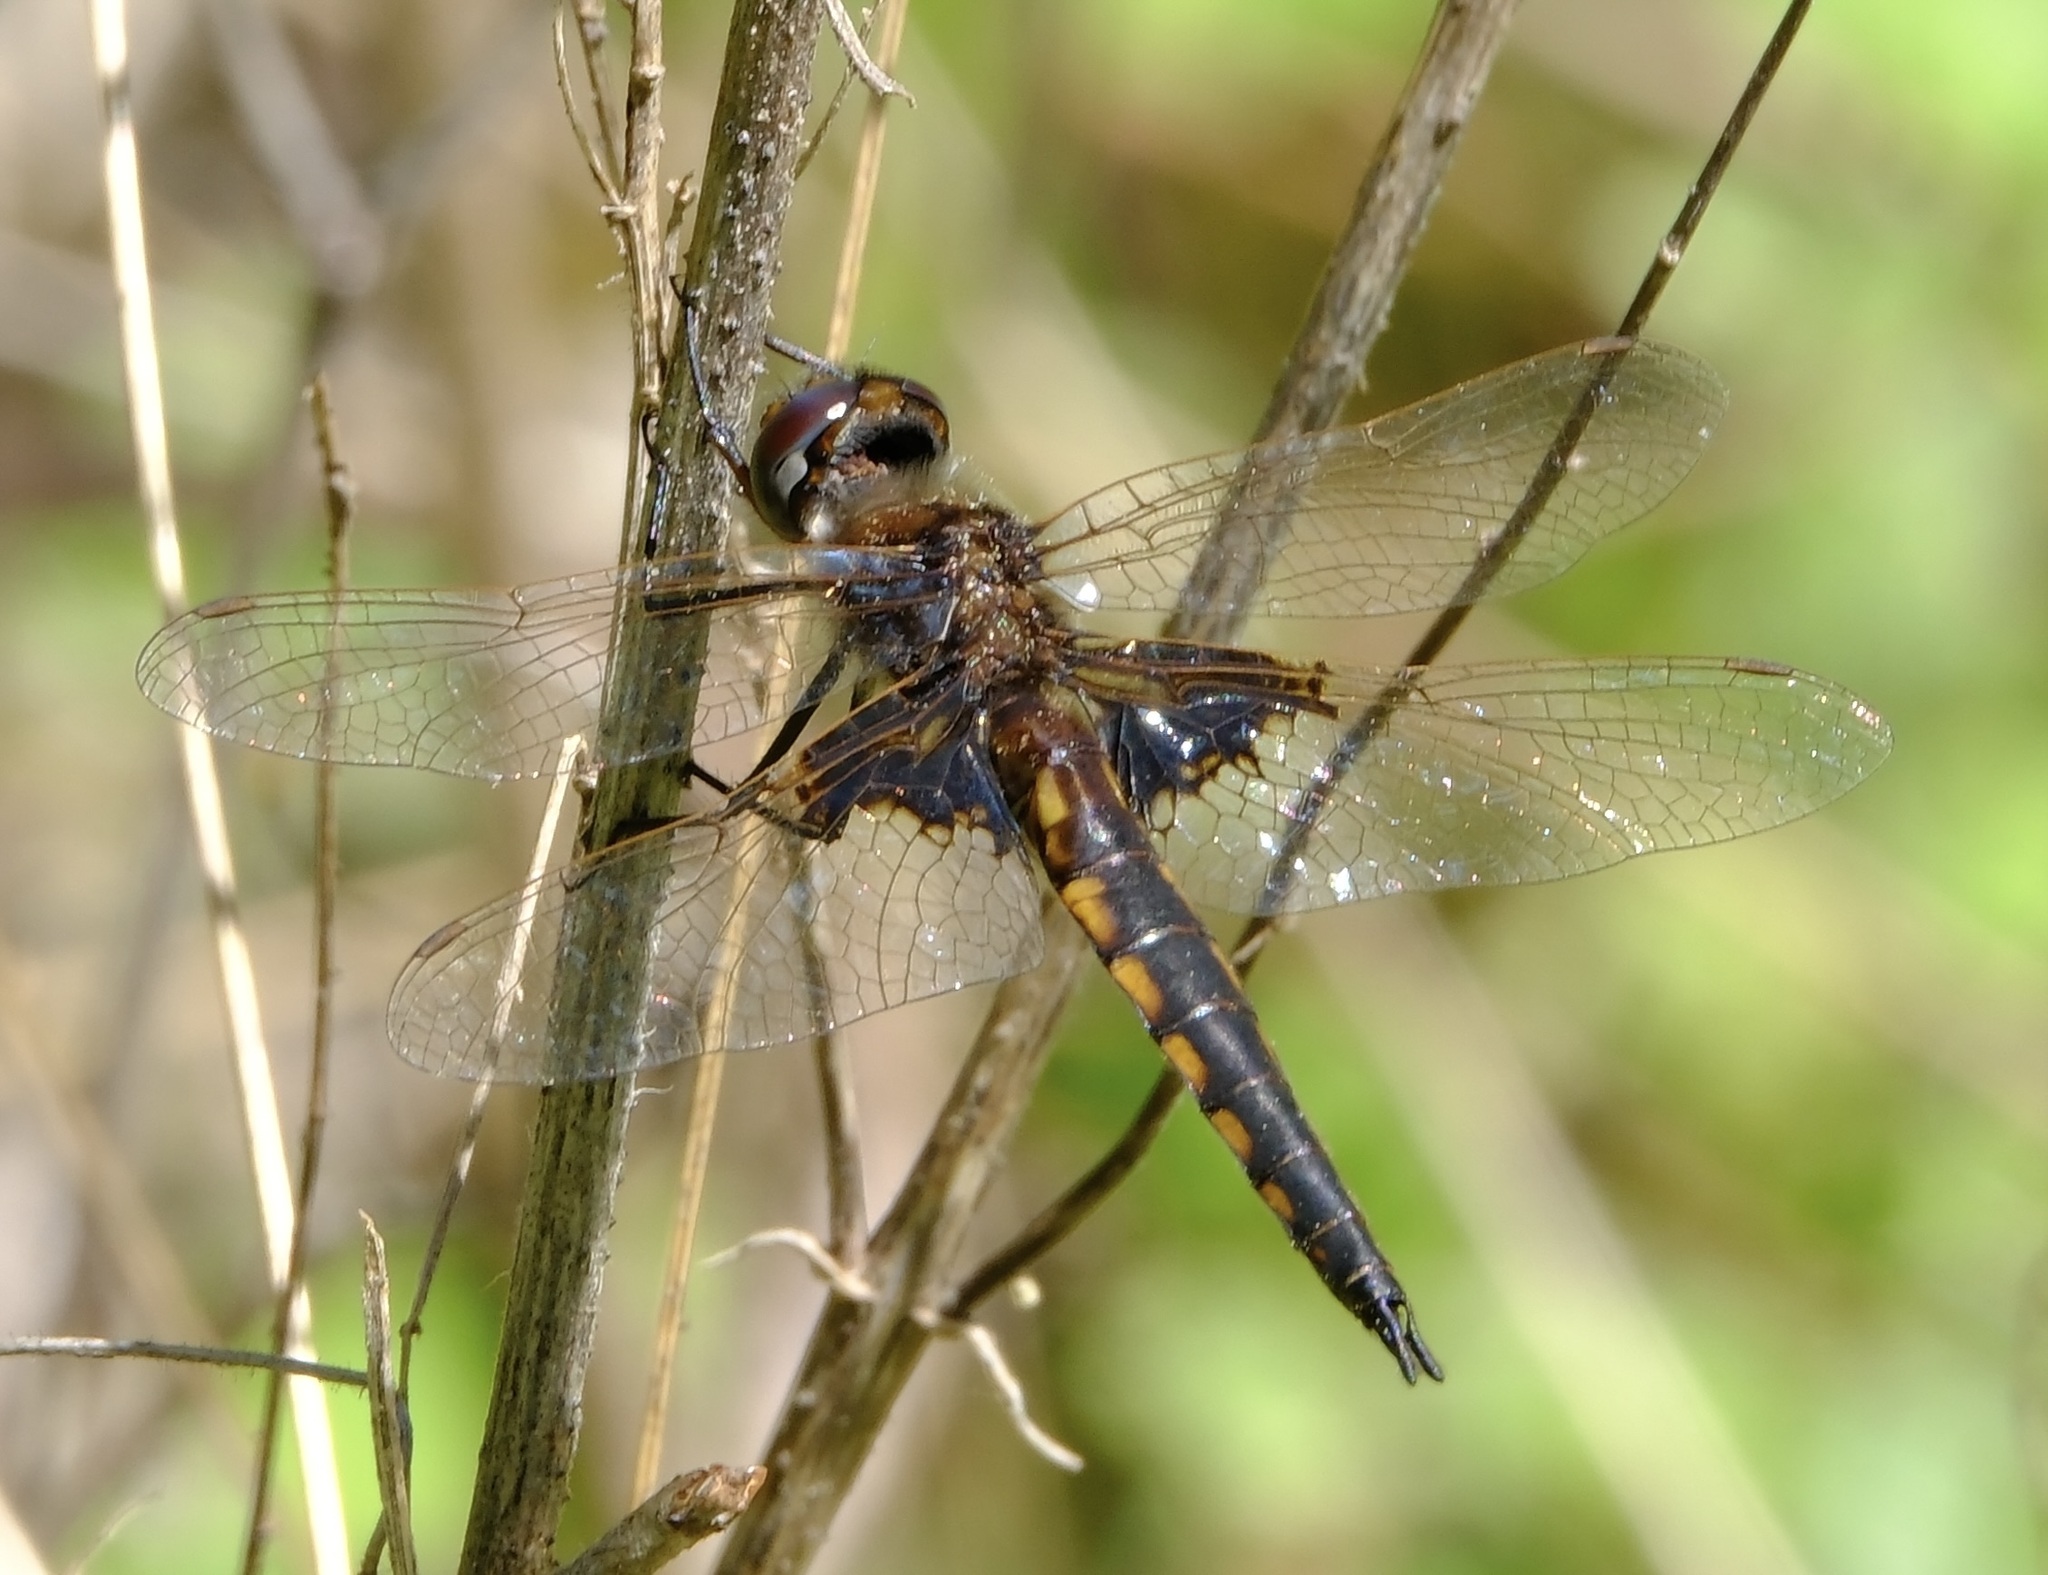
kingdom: Animalia
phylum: Arthropoda
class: Insecta
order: Odonata
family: Corduliidae
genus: Epitheca
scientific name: Epitheca semiaquea
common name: Mantled baskettail
